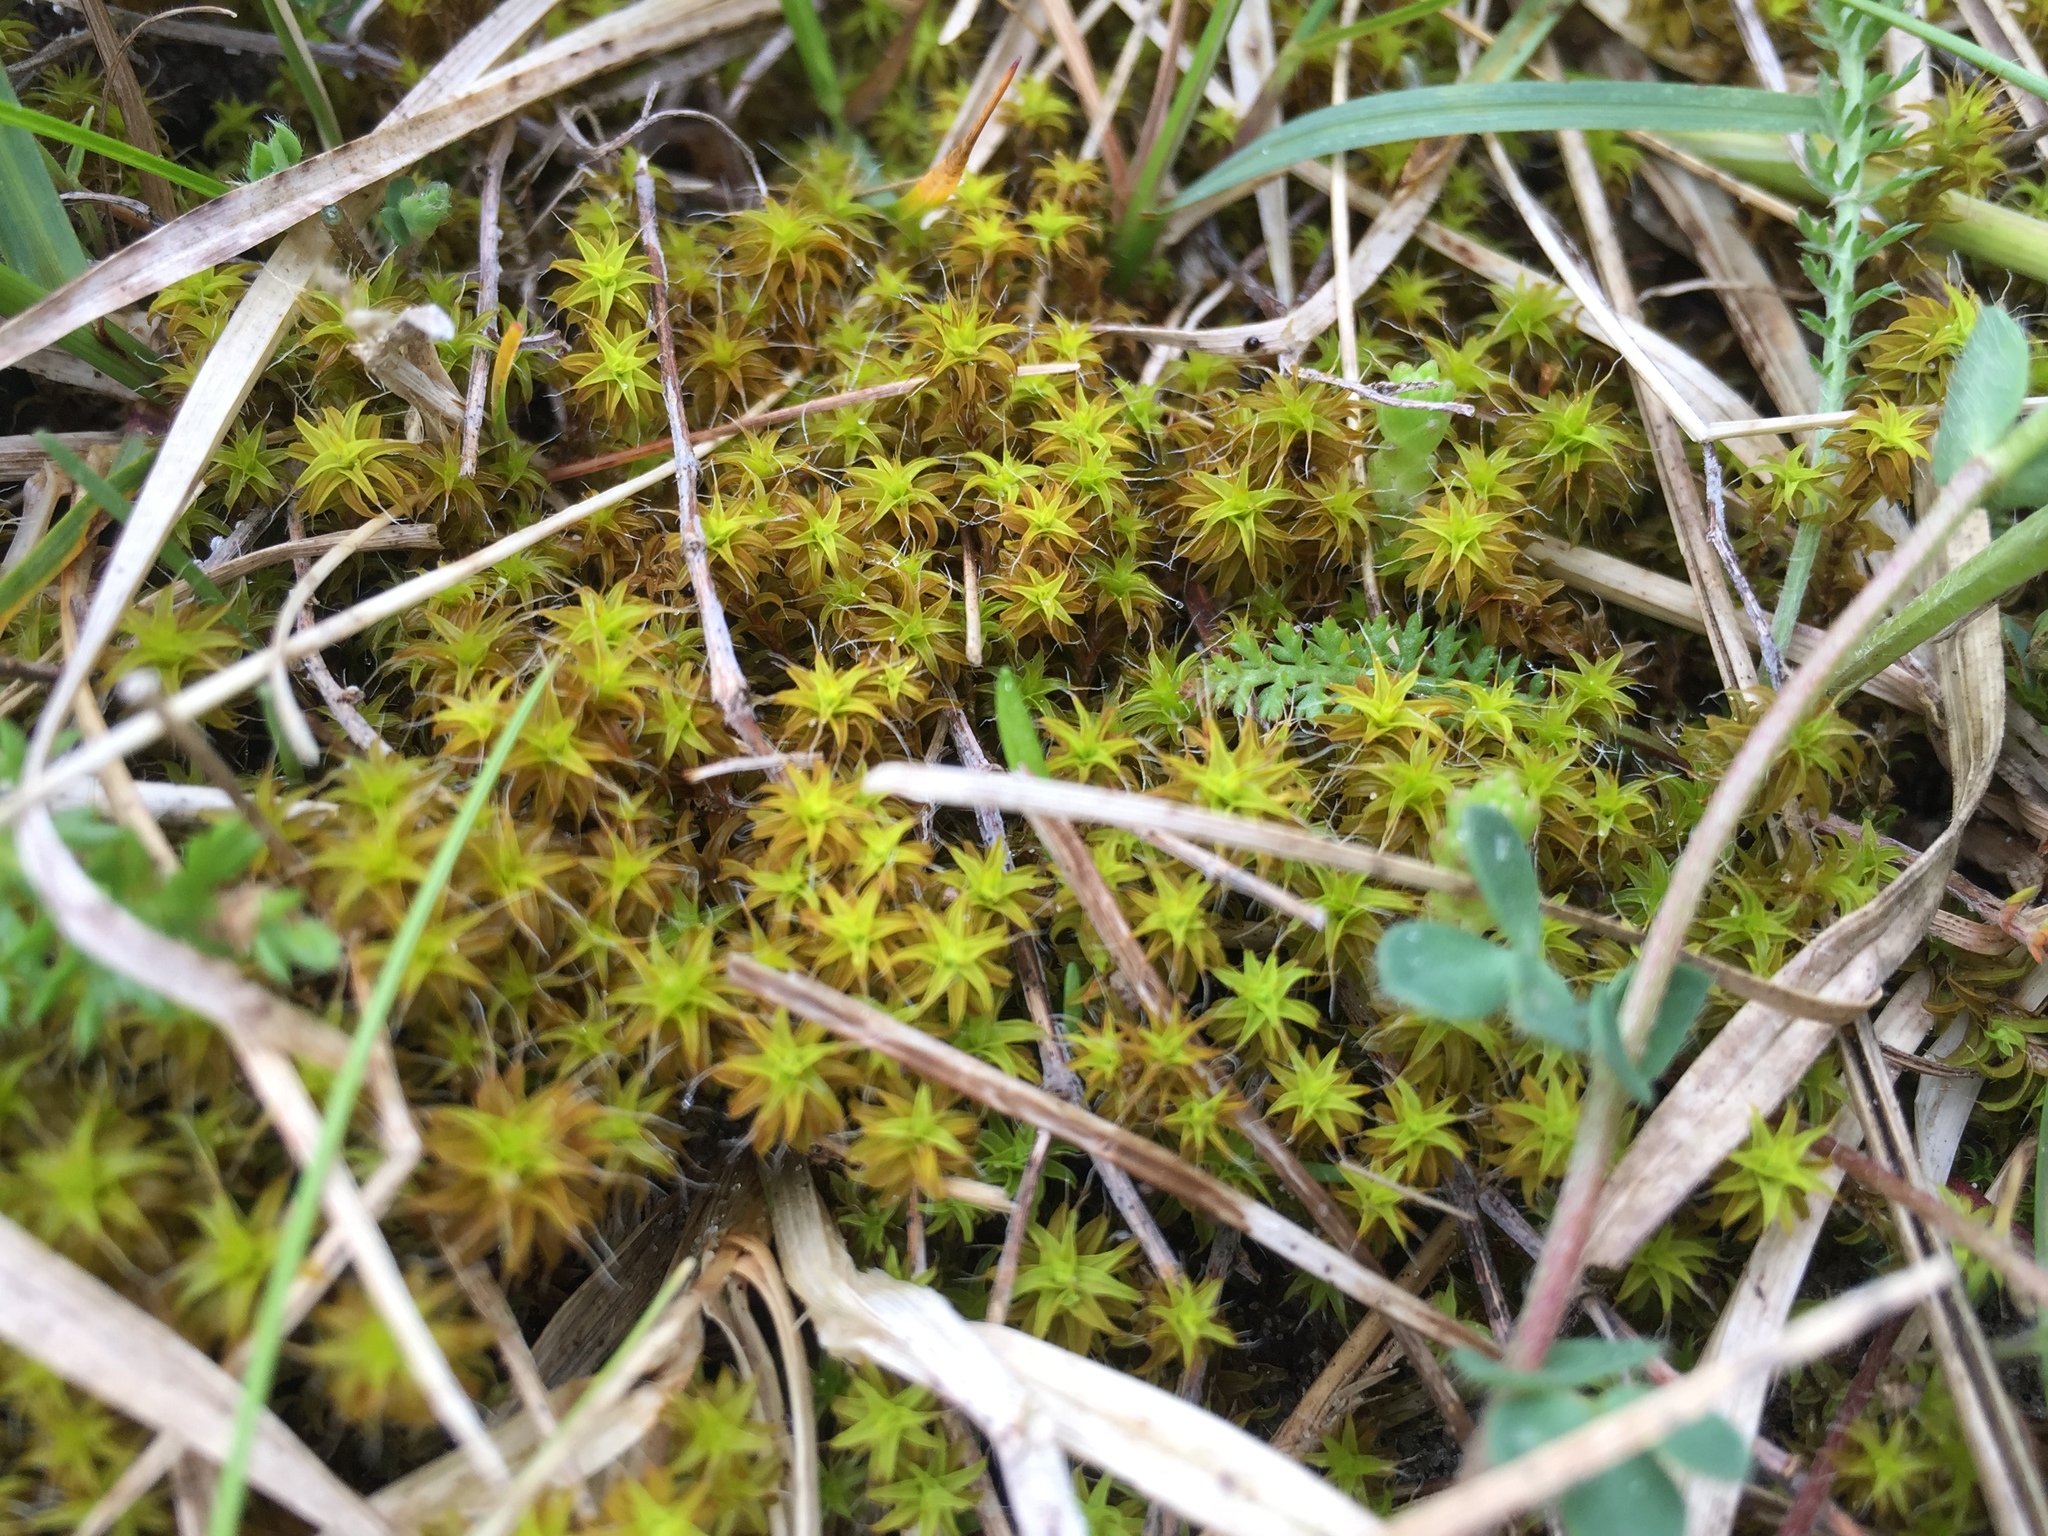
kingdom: Plantae
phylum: Bryophyta
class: Bryopsida
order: Pottiales
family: Pottiaceae
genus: Syntrichia
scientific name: Syntrichia ruralis
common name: Sidewalk screw moss
